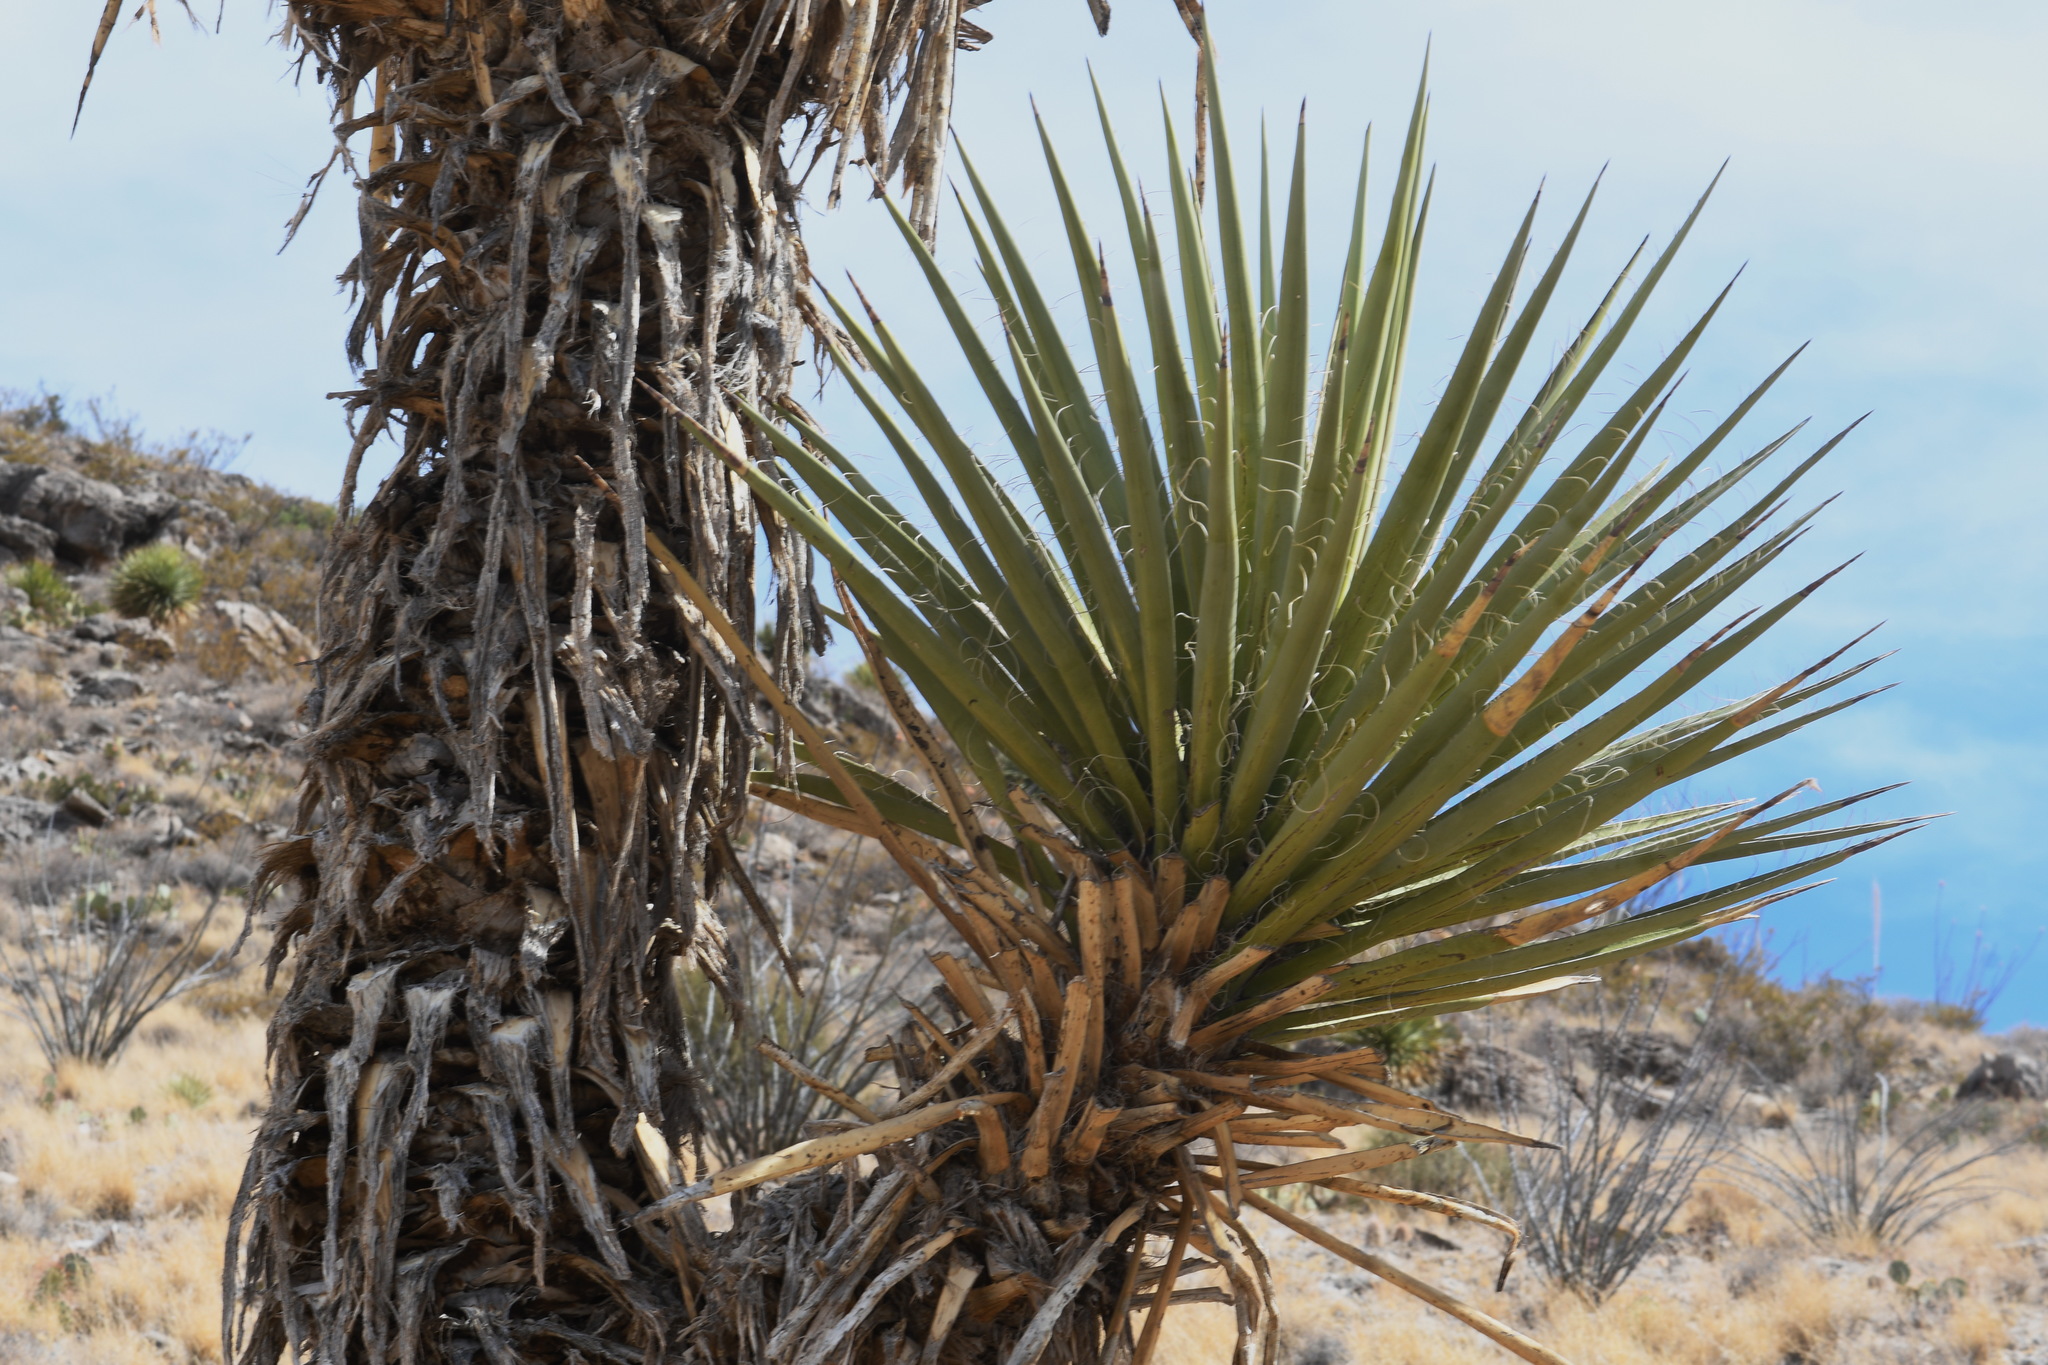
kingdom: Plantae
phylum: Tracheophyta
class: Liliopsida
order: Asparagales
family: Asparagaceae
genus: Yucca
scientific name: Yucca treculiana
